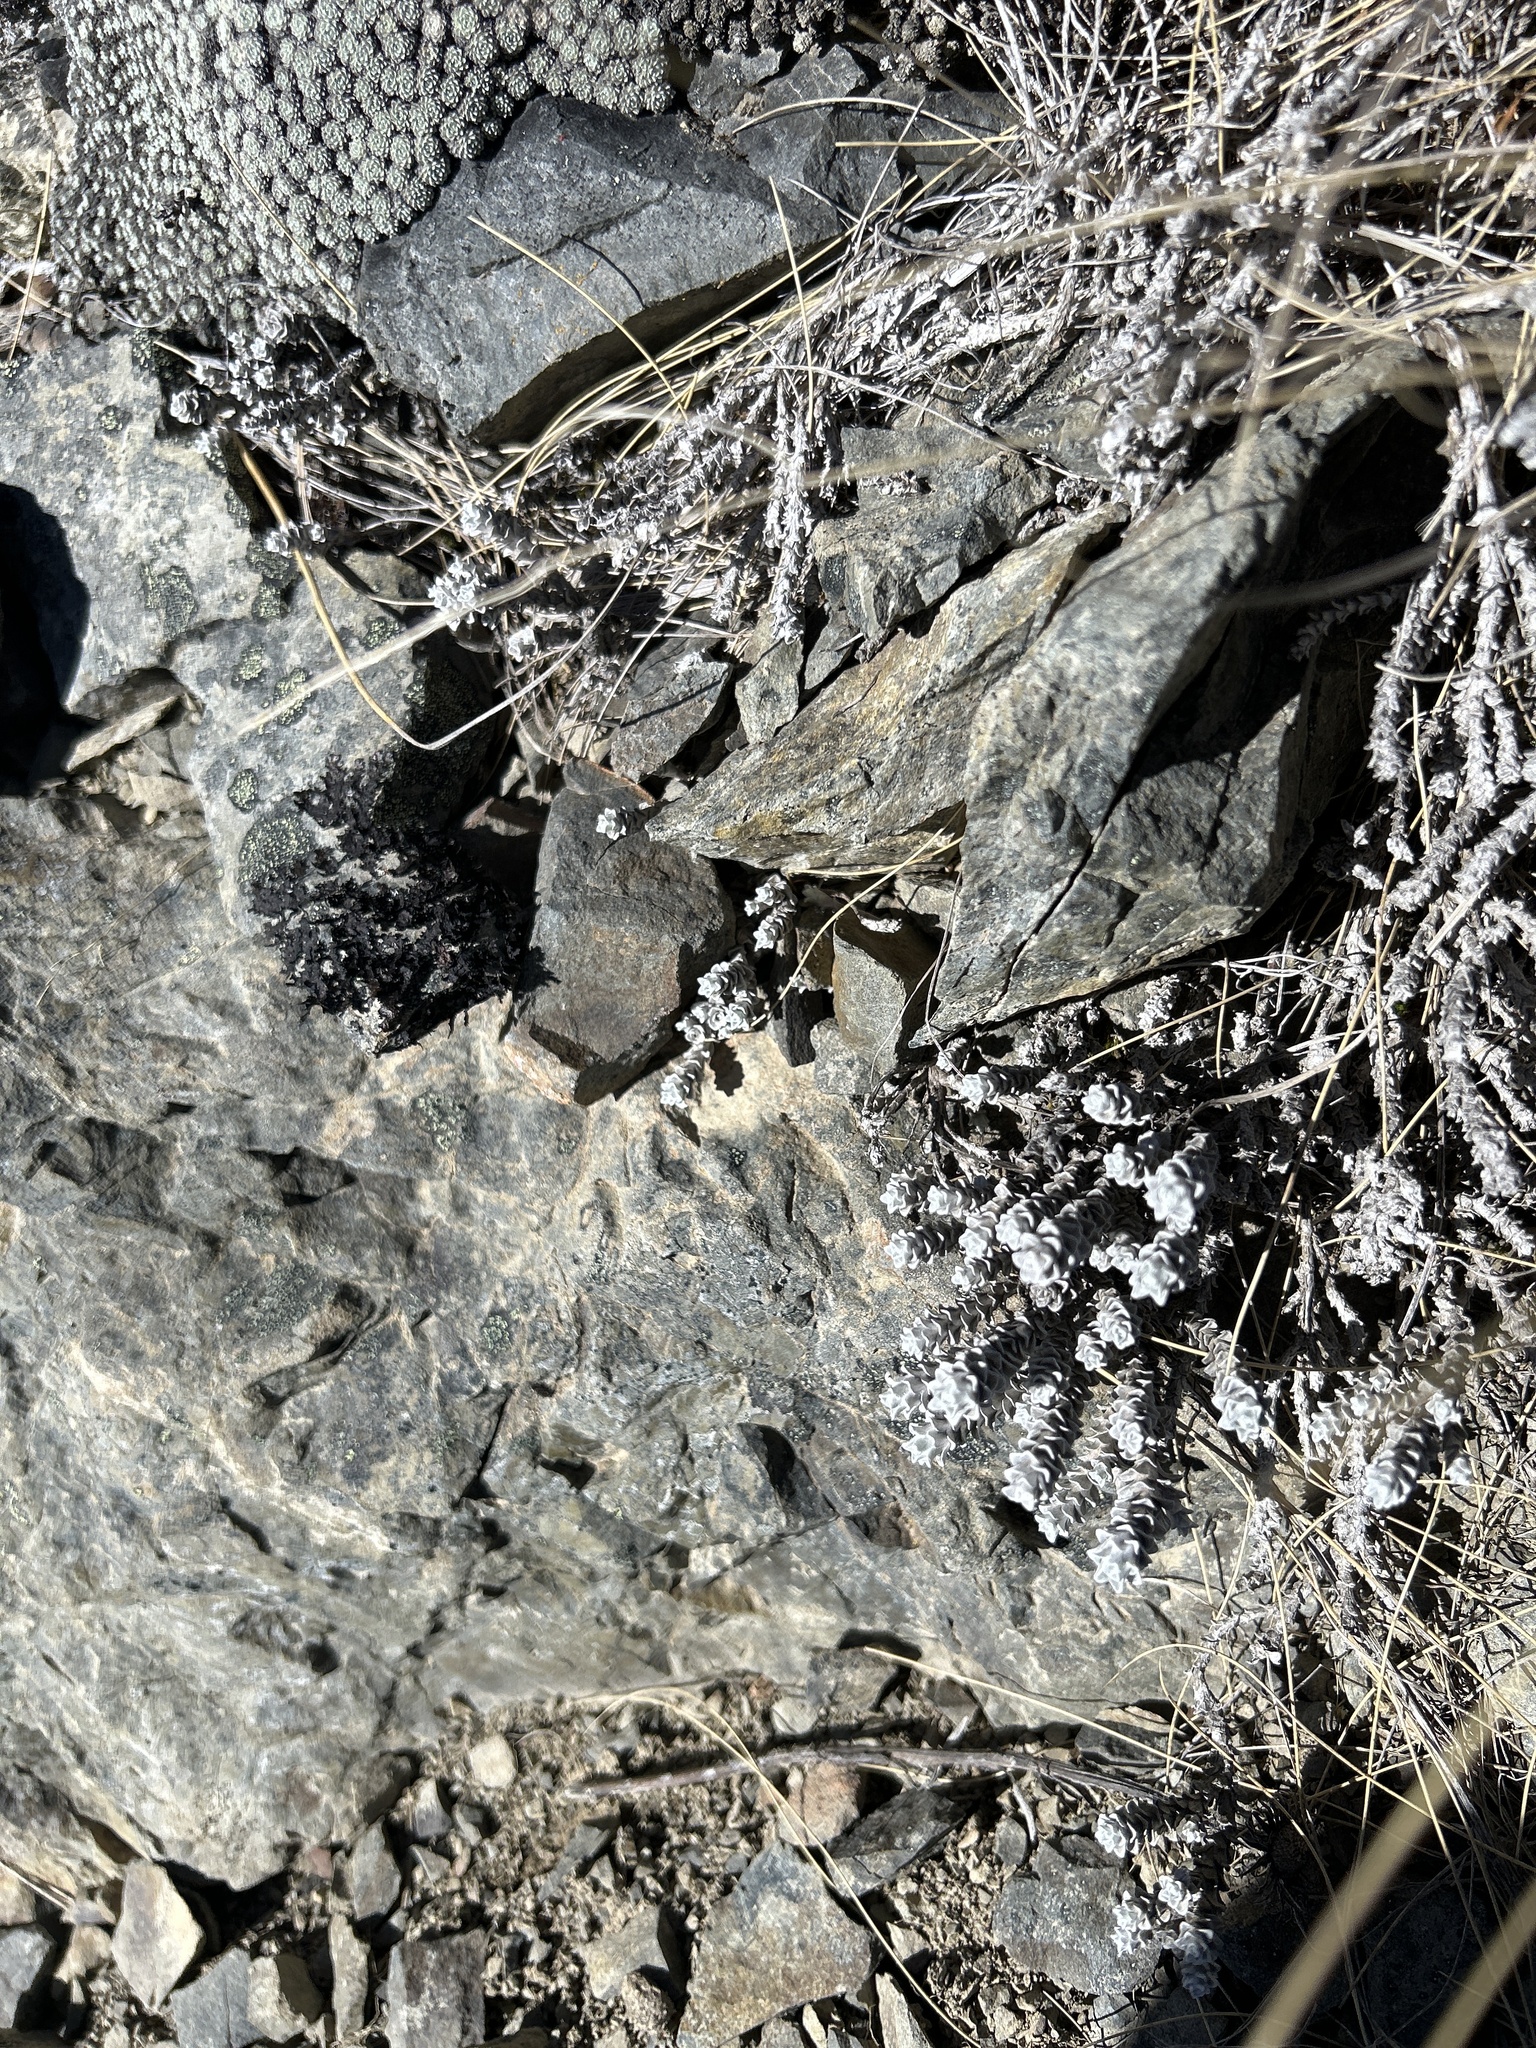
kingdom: Plantae
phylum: Tracheophyta
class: Magnoliopsida
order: Asterales
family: Asteraceae
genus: Leucogenes
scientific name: Leucogenes grandiceps
